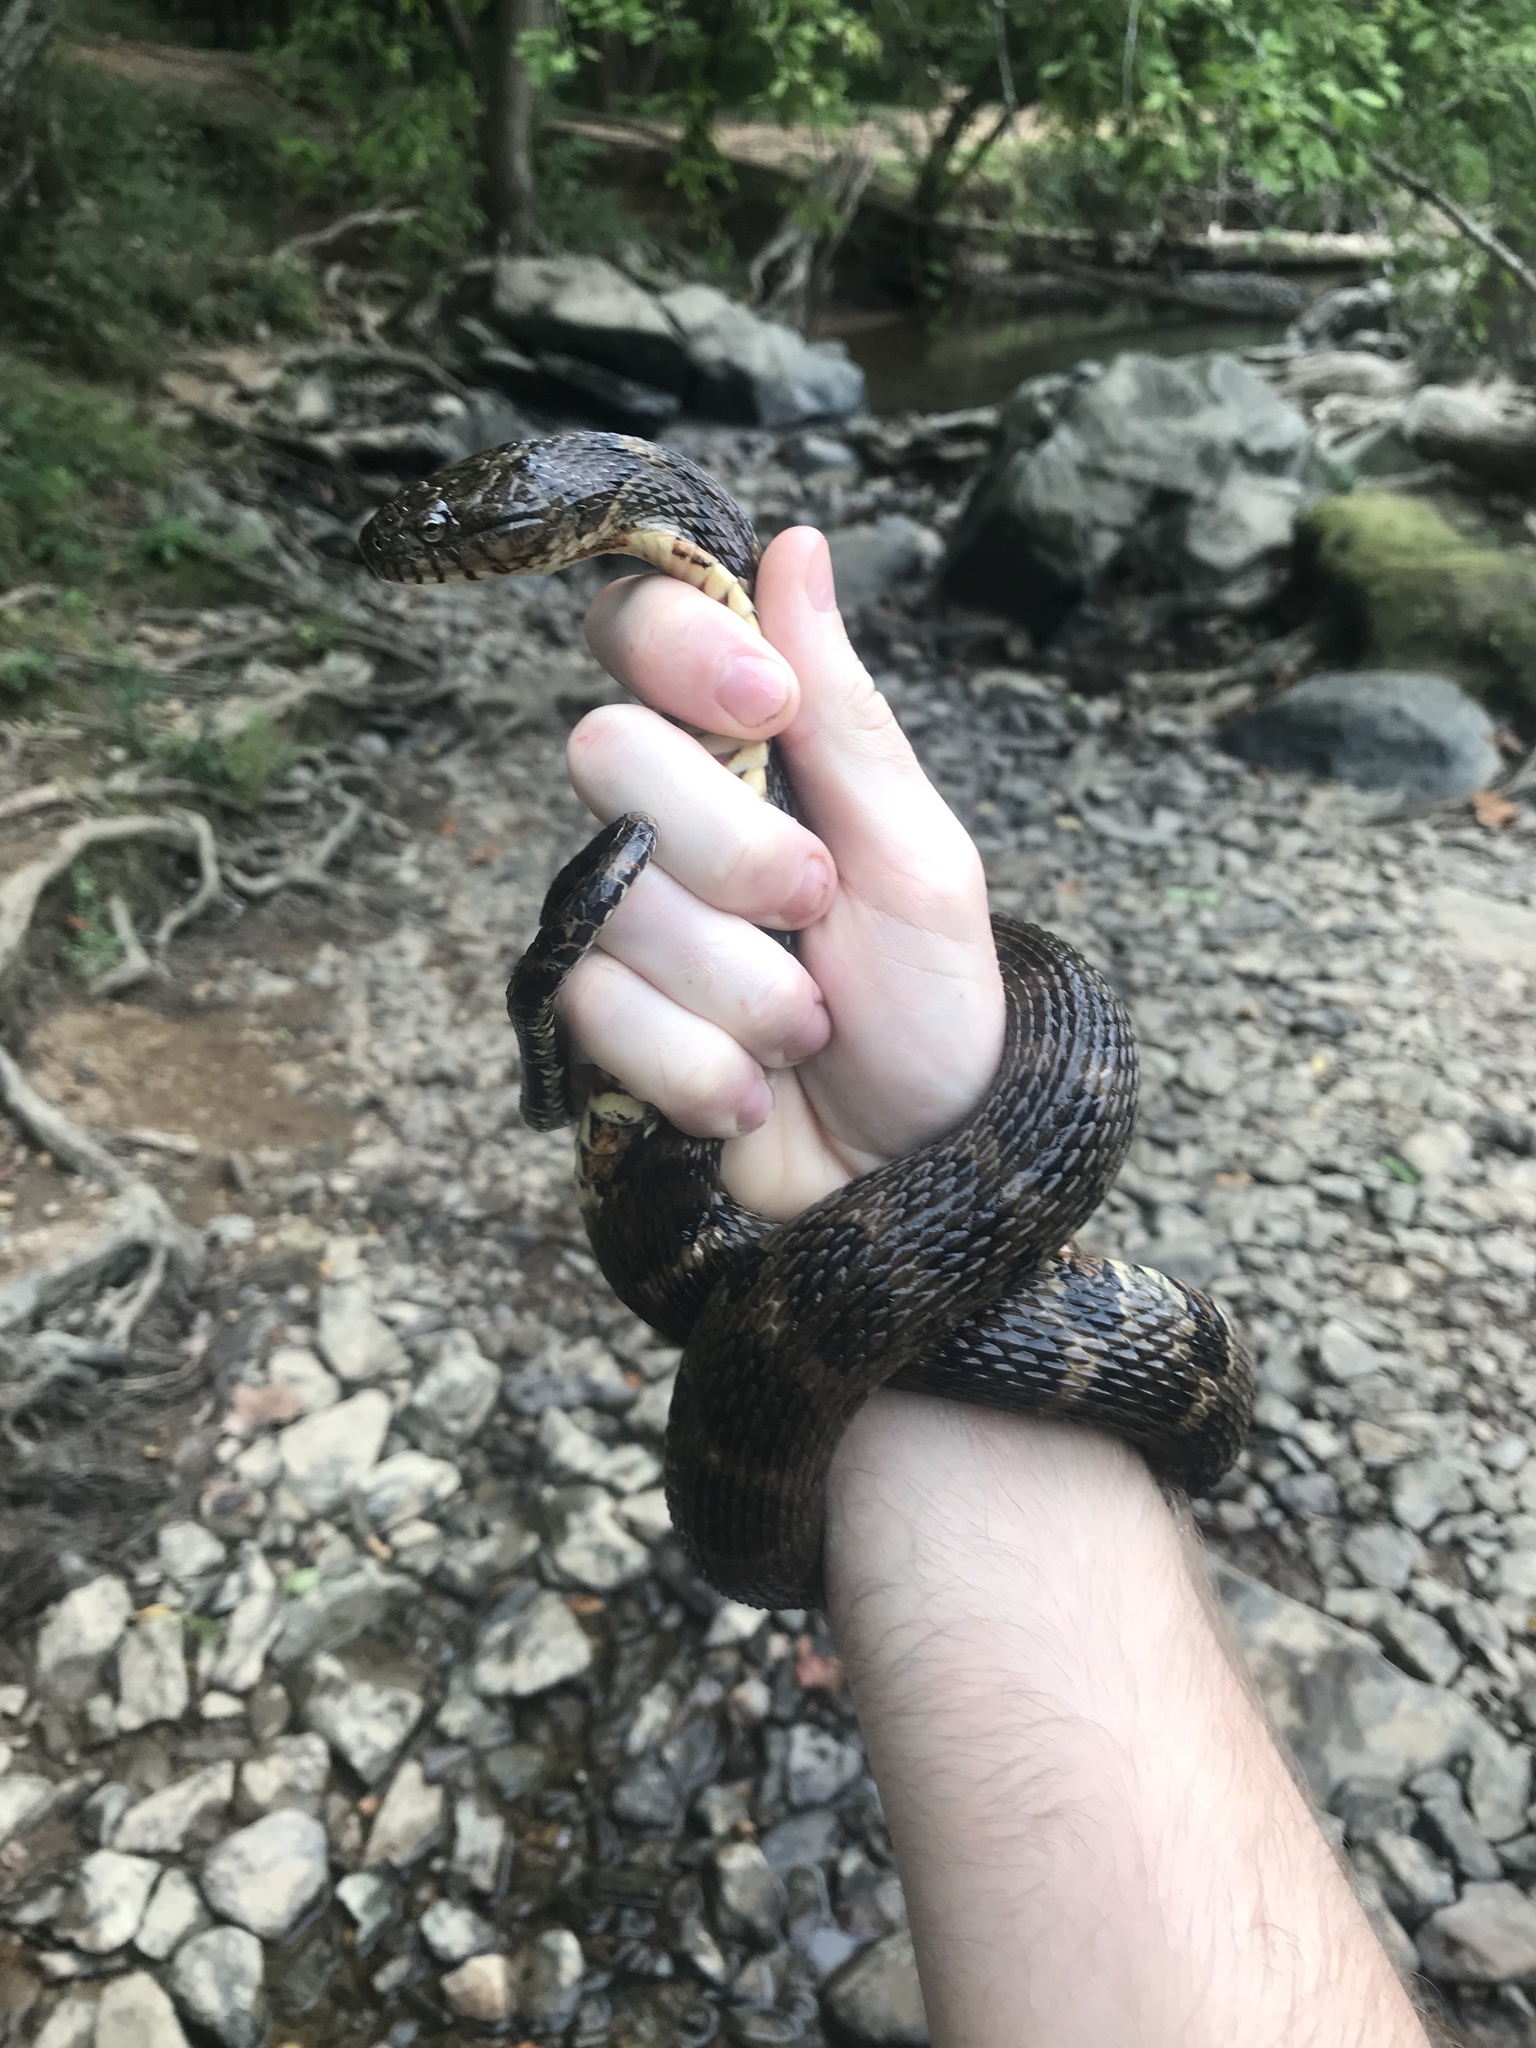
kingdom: Animalia
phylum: Chordata
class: Squamata
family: Colubridae
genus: Nerodia
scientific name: Nerodia sipedon
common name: Northern water snake
